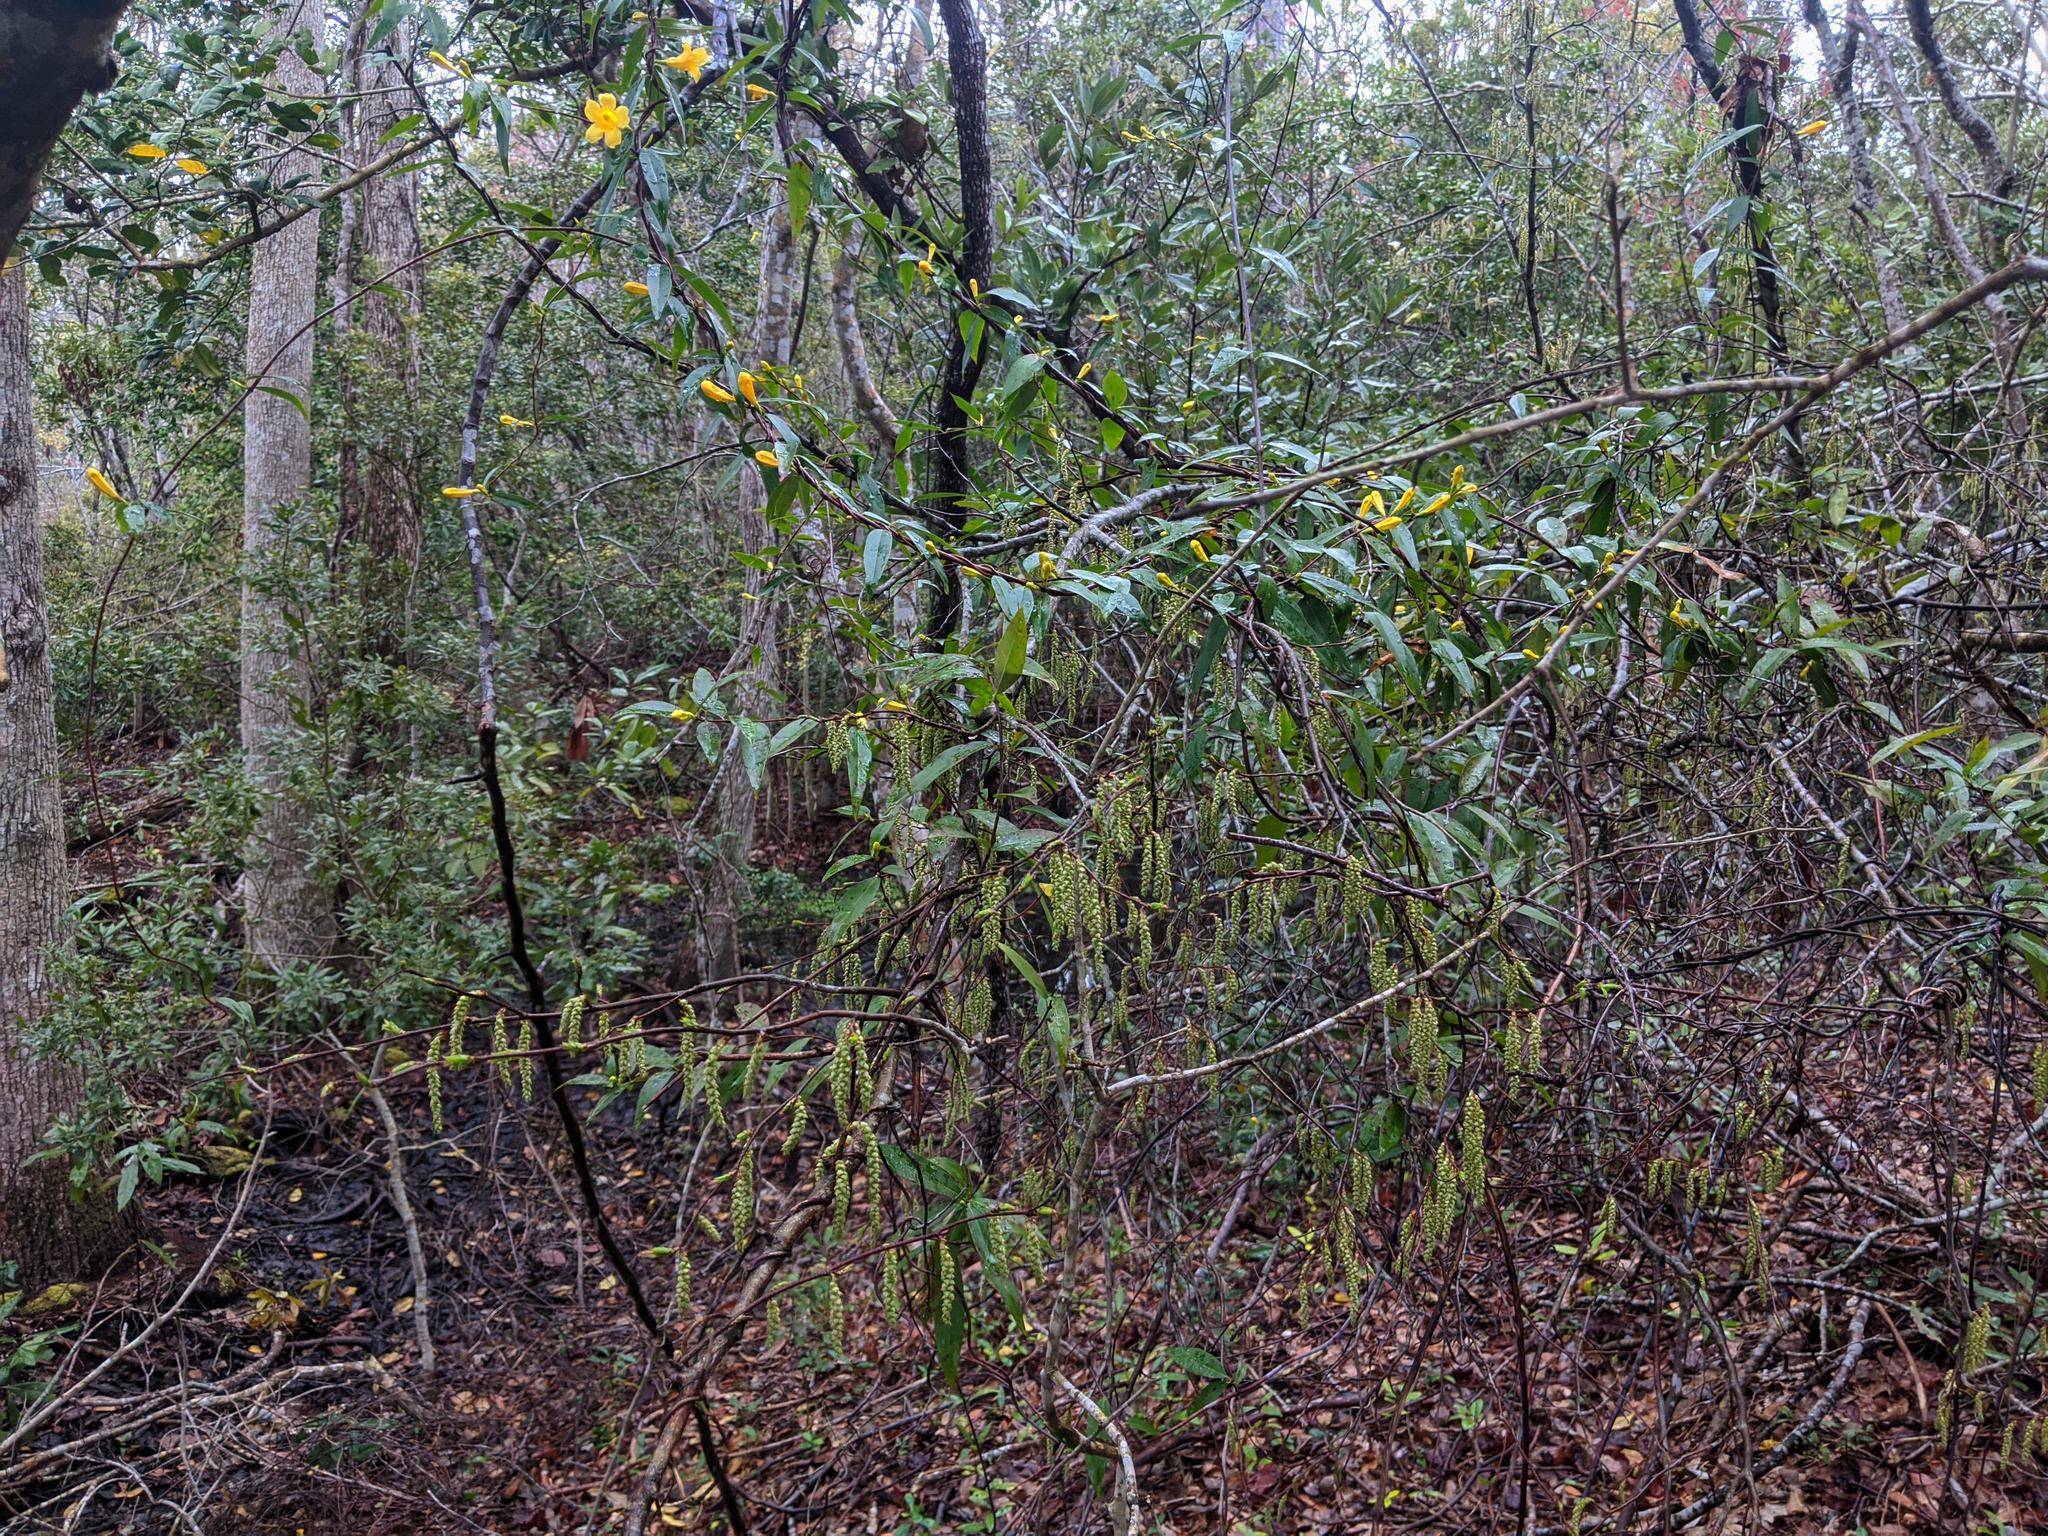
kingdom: Plantae
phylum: Tracheophyta
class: Magnoliopsida
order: Gentianales
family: Gelsemiaceae
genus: Gelsemium
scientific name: Gelsemium sempervirens
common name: Carolina-jasmine
